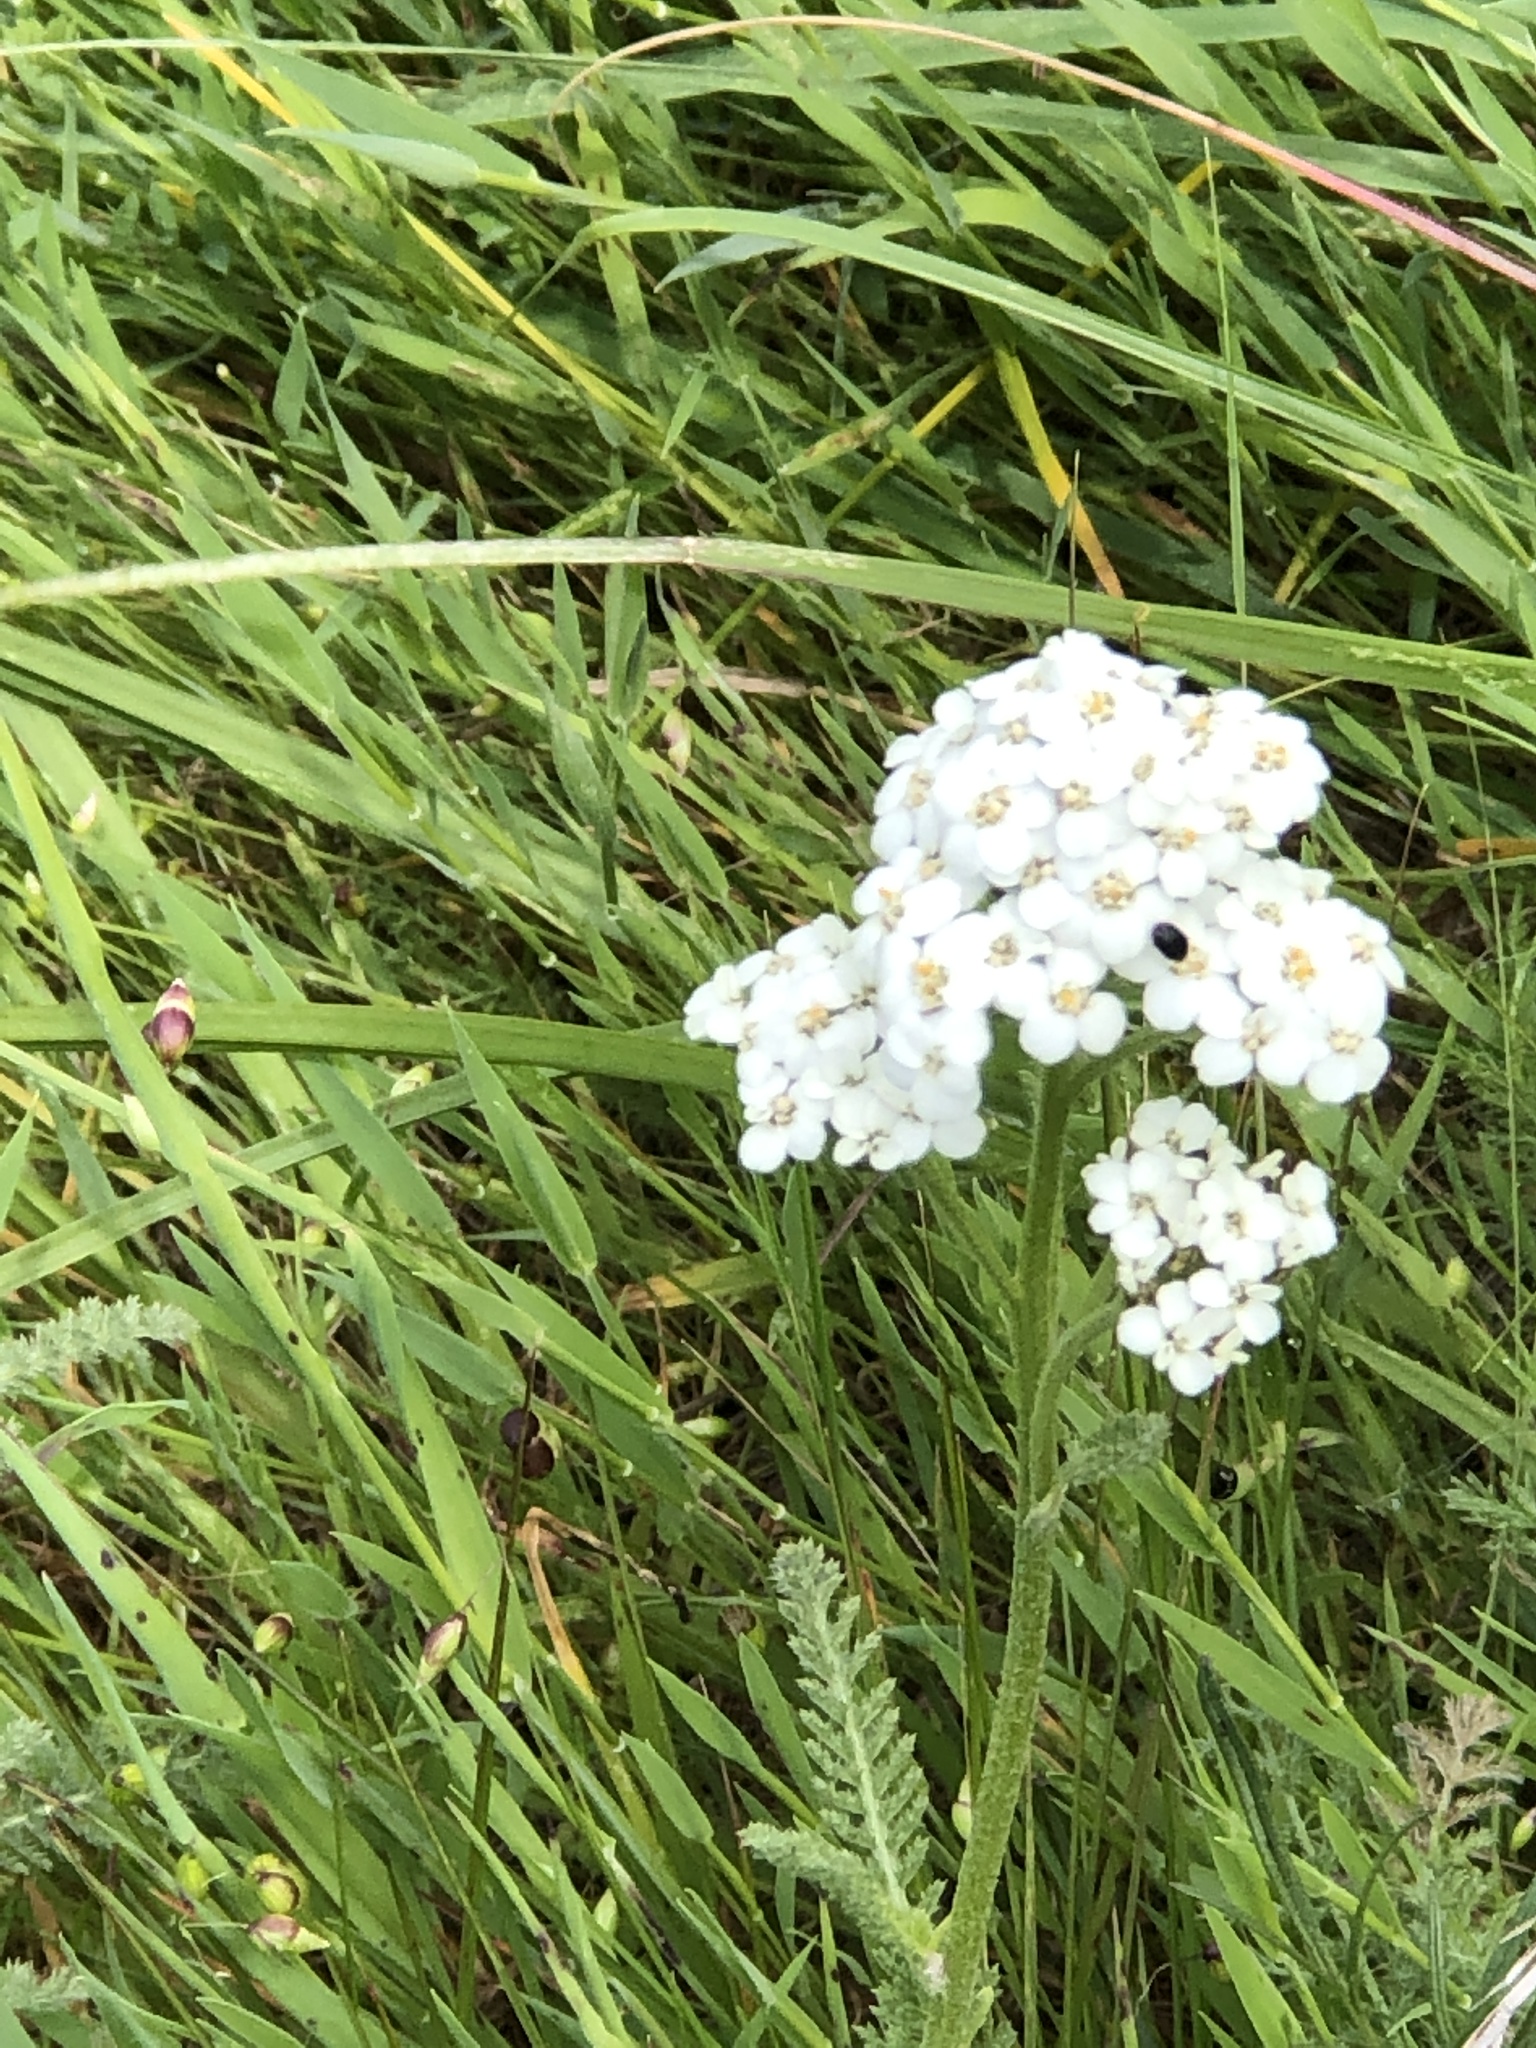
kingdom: Plantae
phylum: Tracheophyta
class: Magnoliopsida
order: Asterales
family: Asteraceae
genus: Achillea
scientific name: Achillea millefolium
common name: Yarrow
